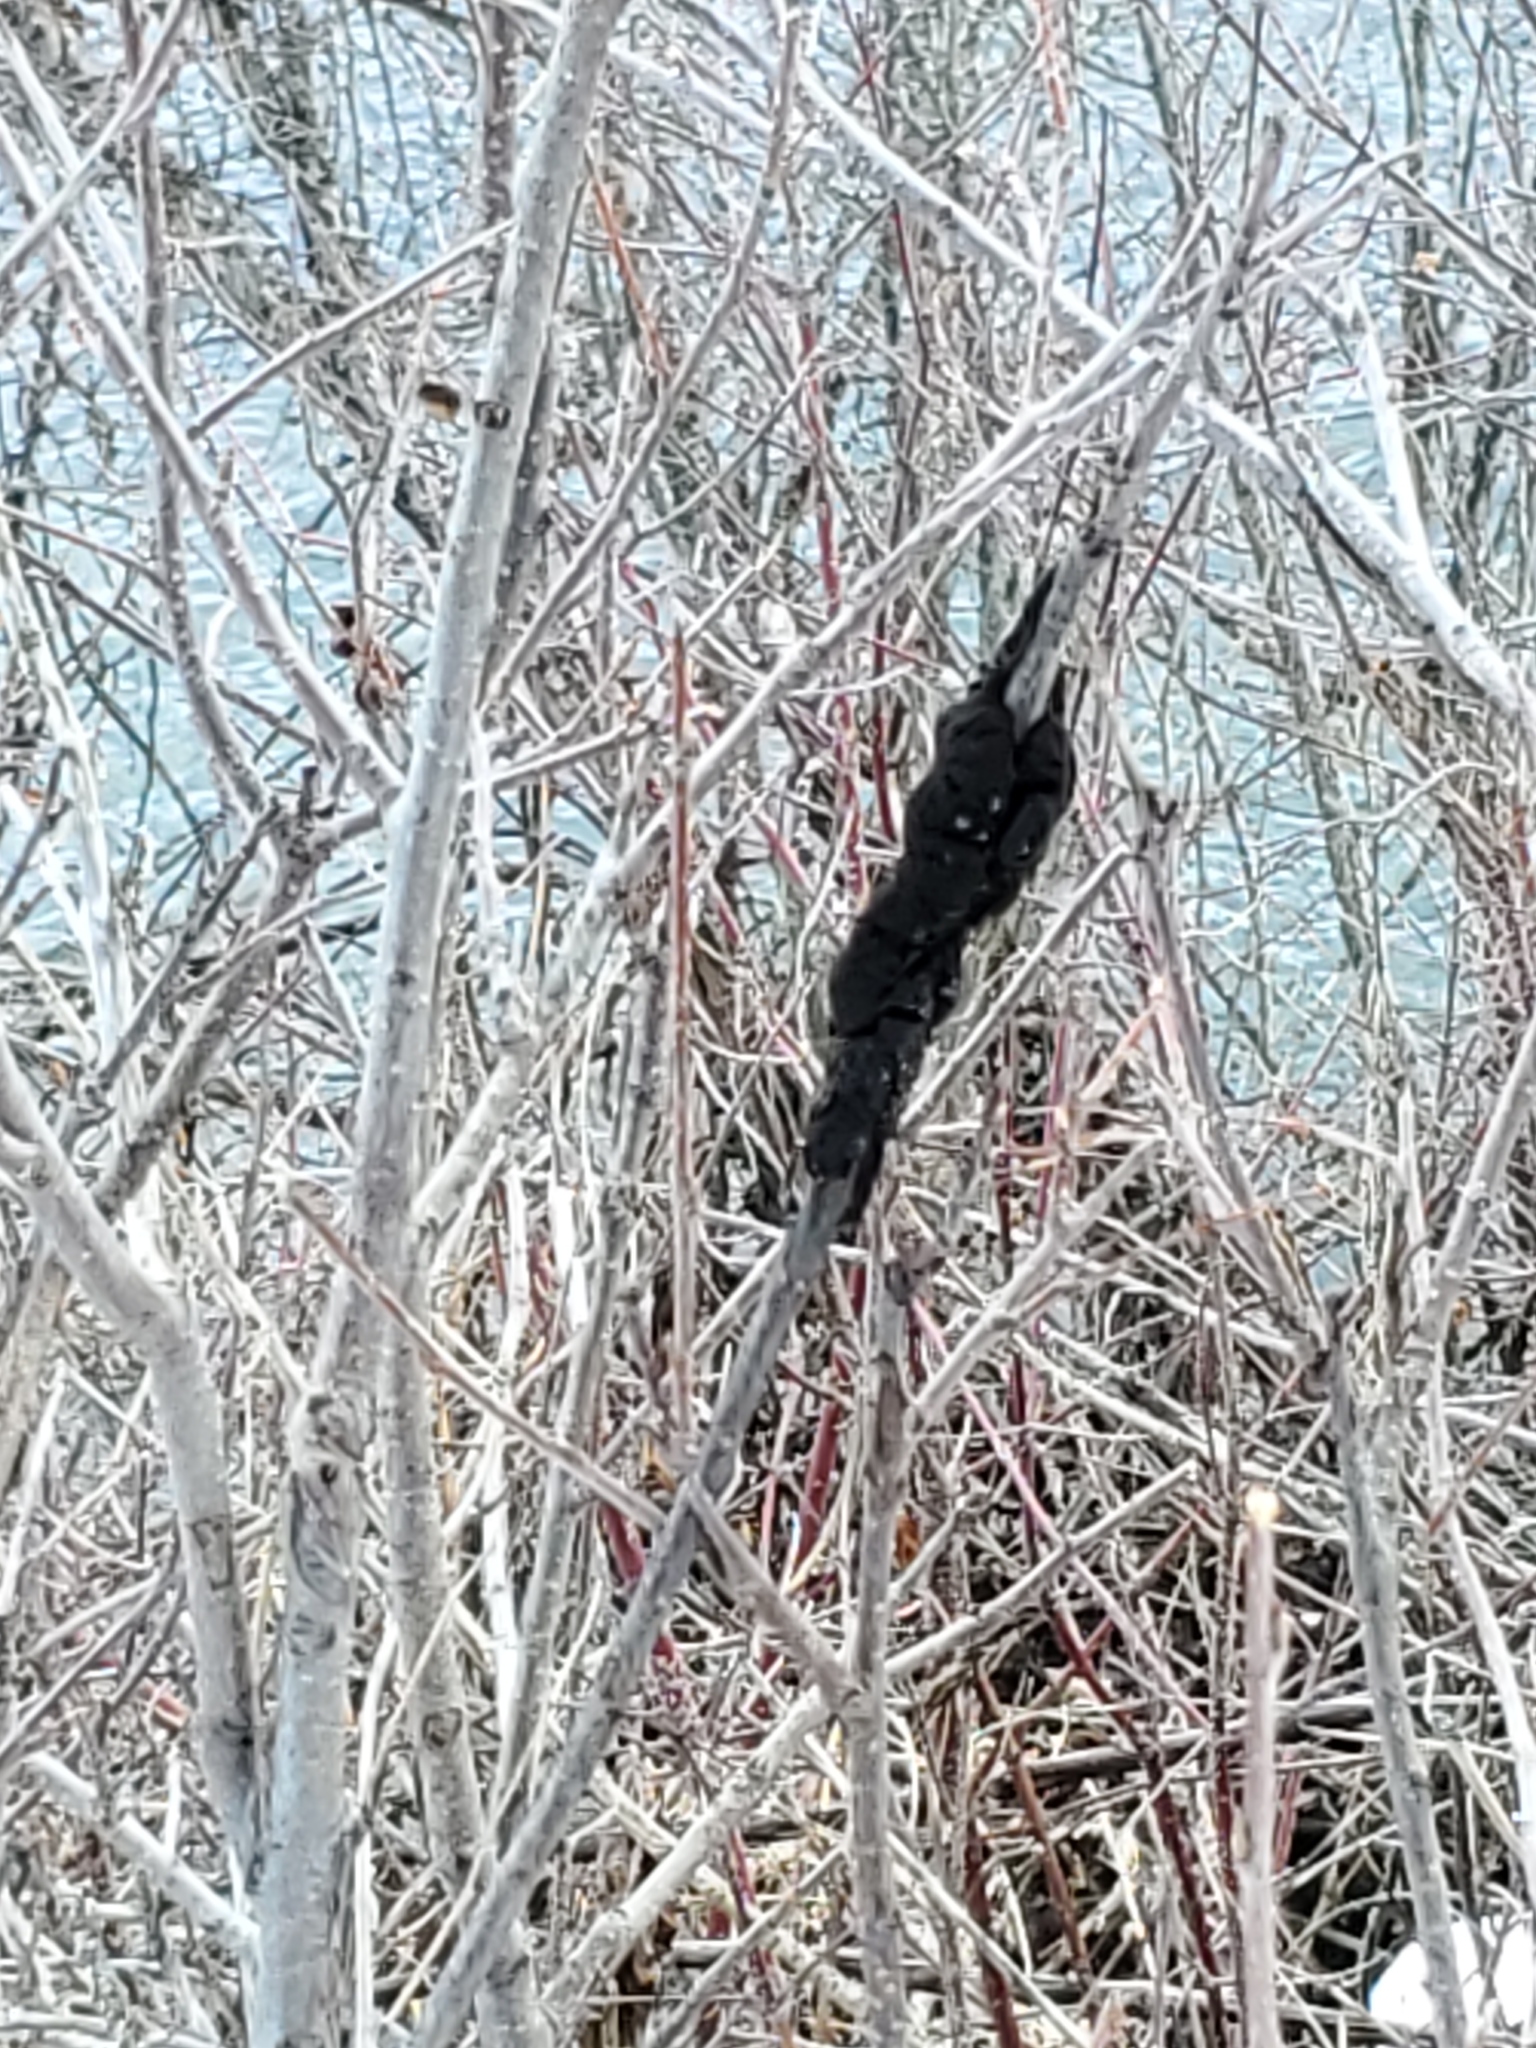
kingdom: Fungi
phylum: Ascomycota
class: Dothideomycetes
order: Venturiales
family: Venturiaceae
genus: Apiosporina
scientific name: Apiosporina morbosa
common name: Black knot
